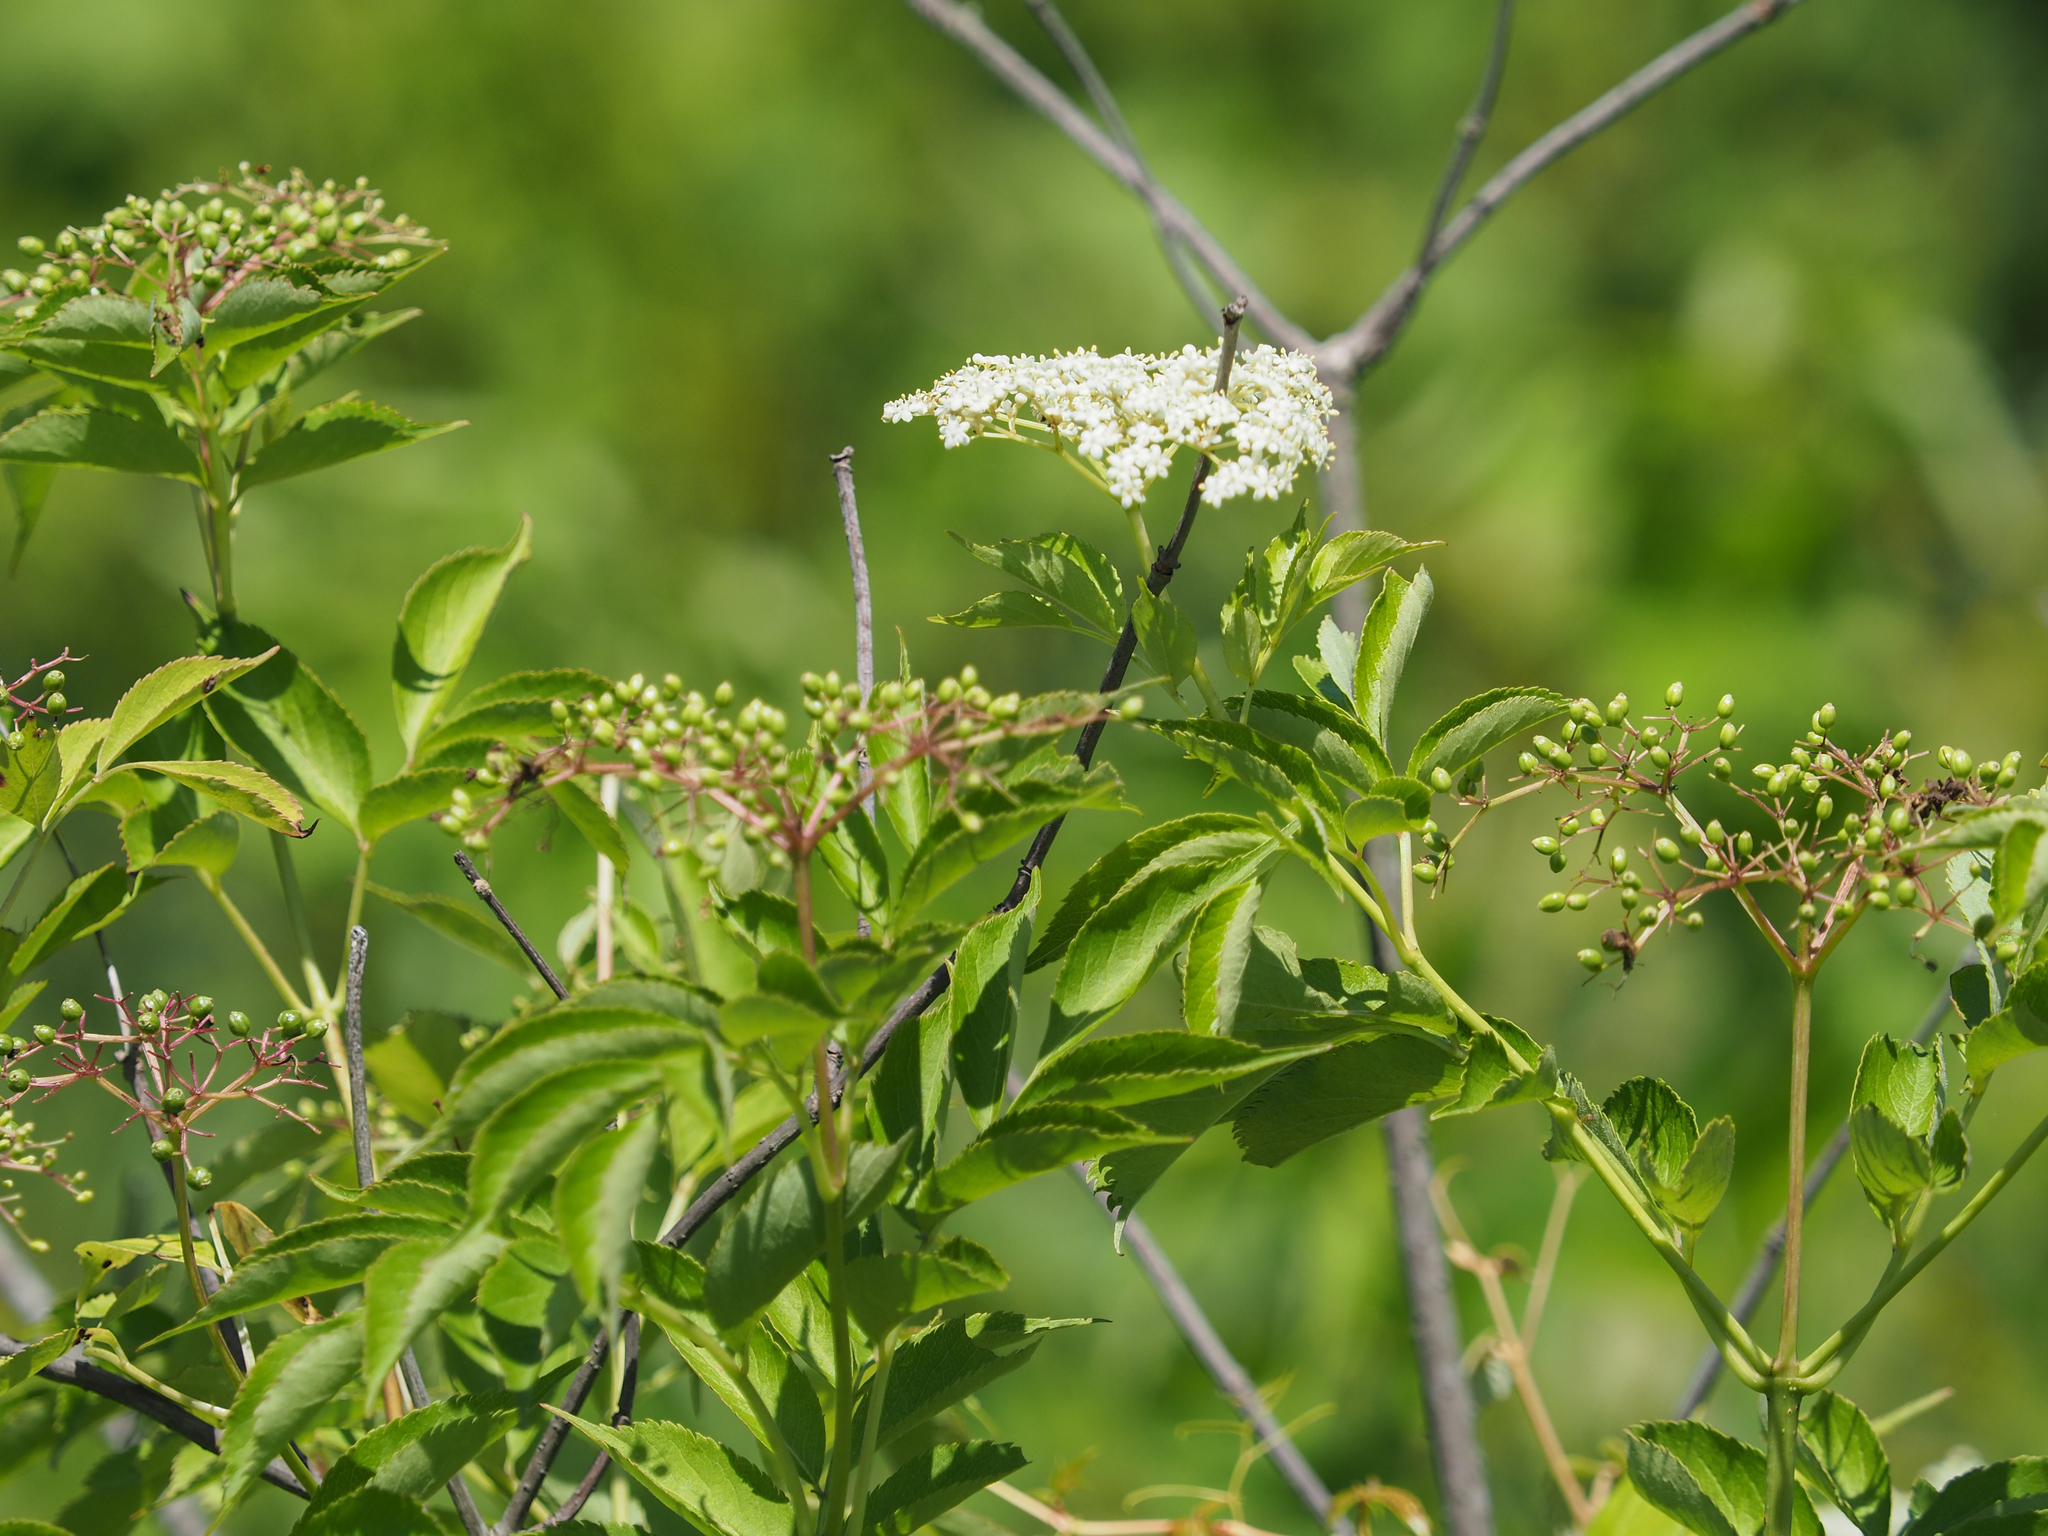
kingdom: Plantae
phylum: Tracheophyta
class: Magnoliopsida
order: Dipsacales
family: Viburnaceae
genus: Sambucus
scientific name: Sambucus canadensis
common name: American elder
